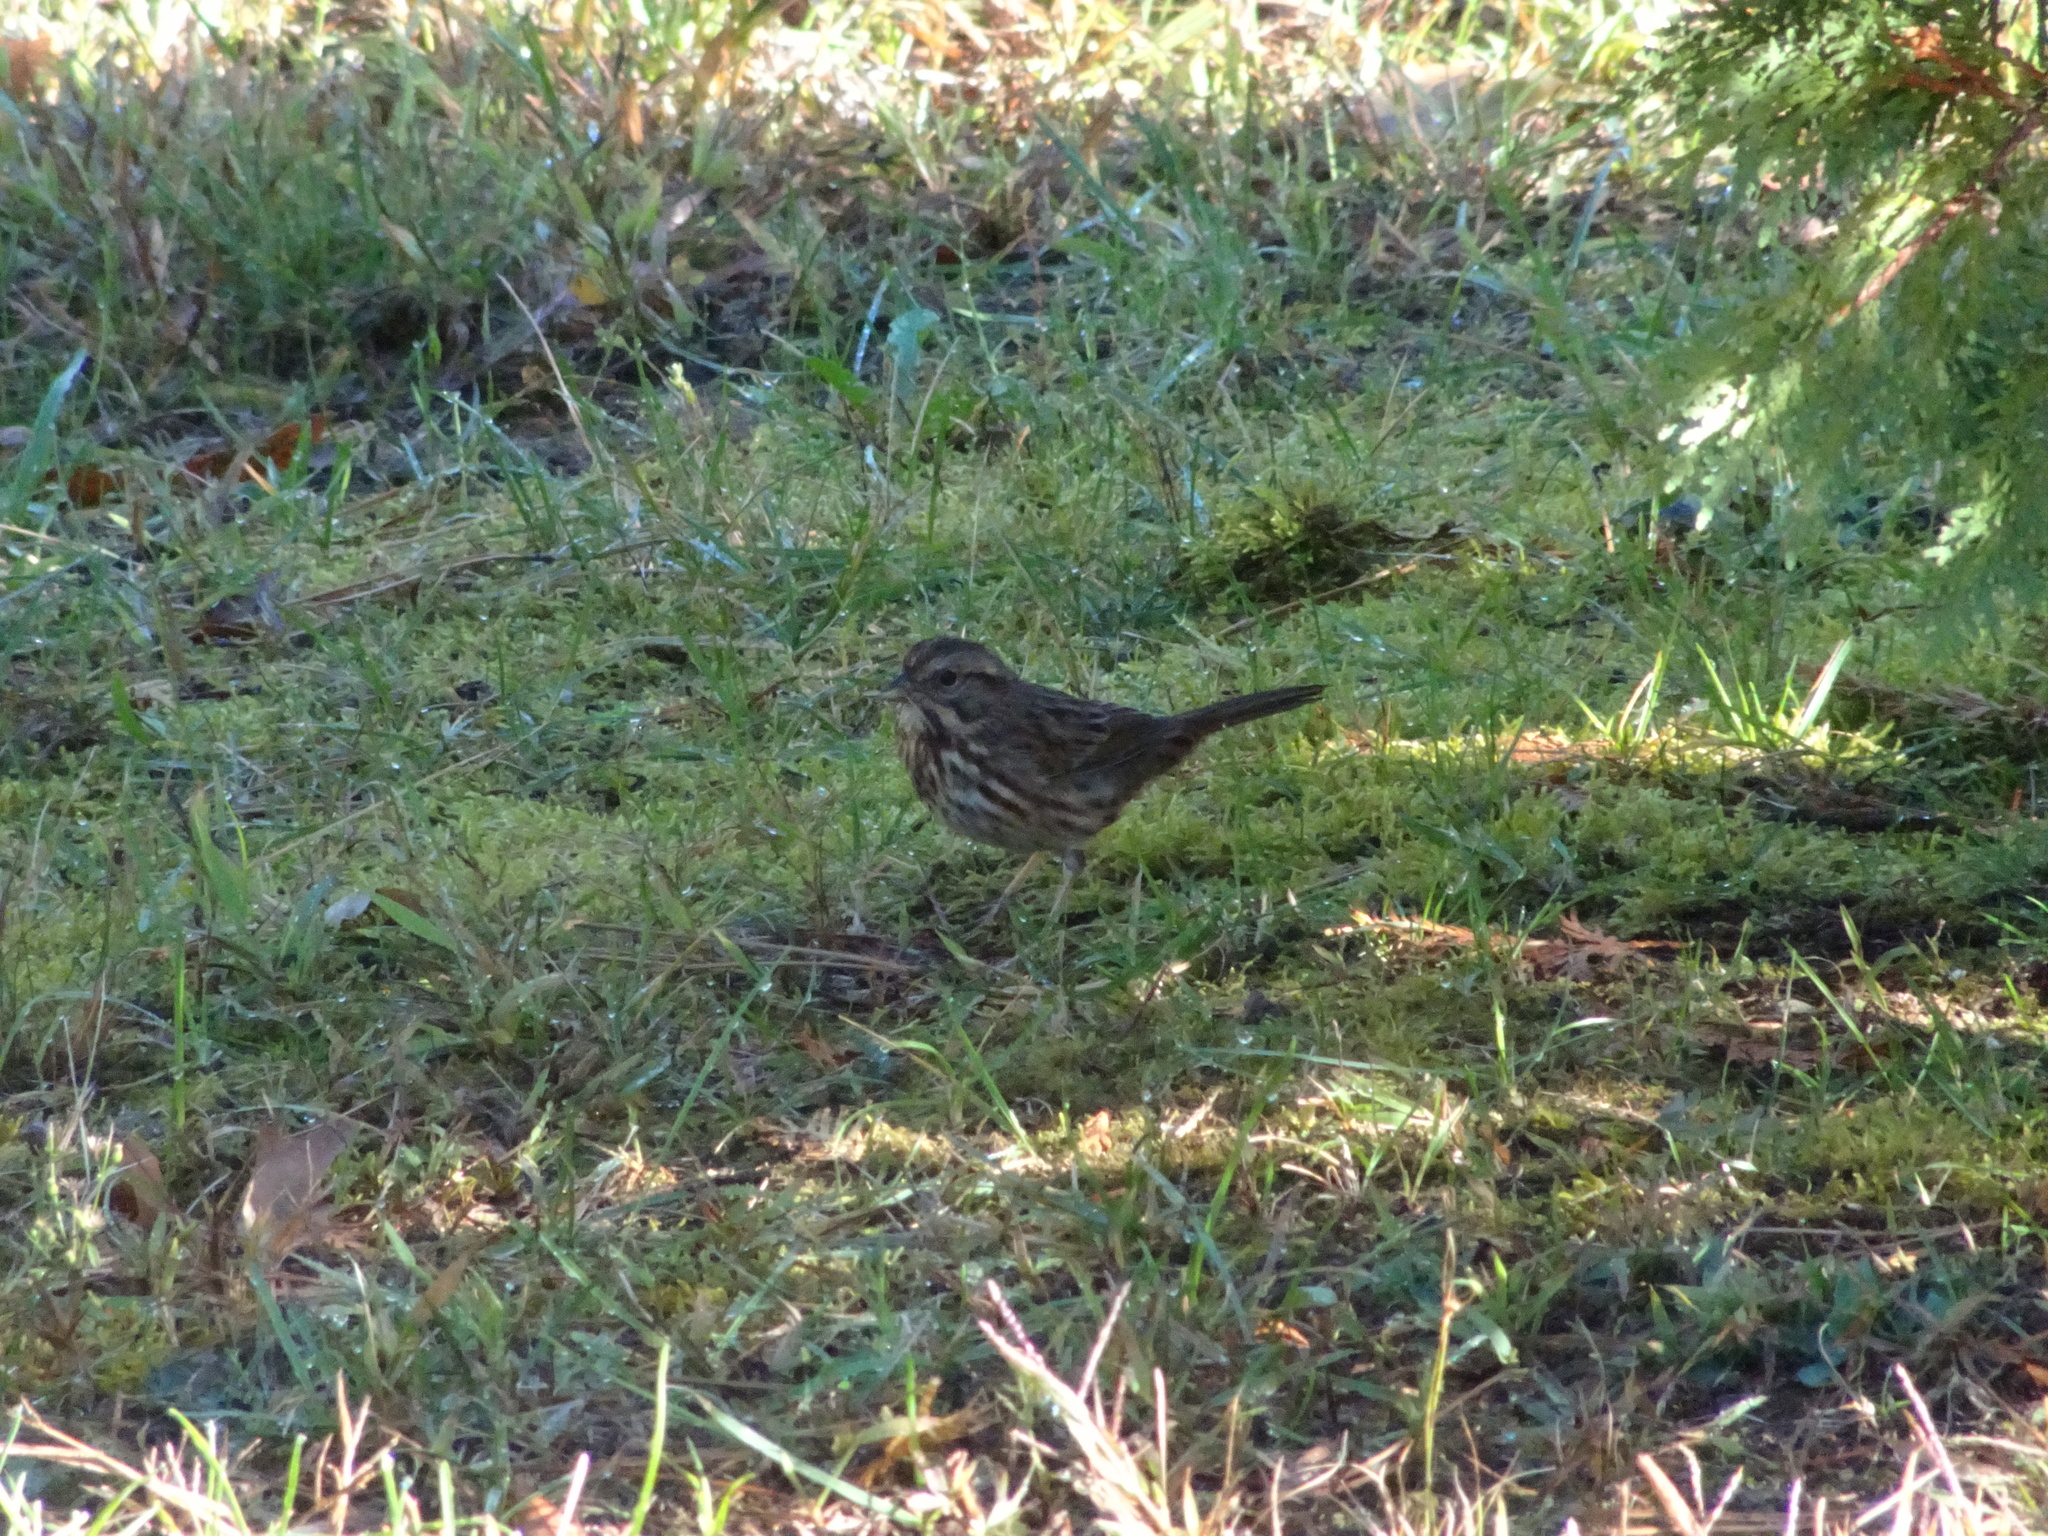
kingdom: Animalia
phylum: Chordata
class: Aves
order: Passeriformes
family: Passerellidae
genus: Melospiza
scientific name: Melospiza melodia
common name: Song sparrow
